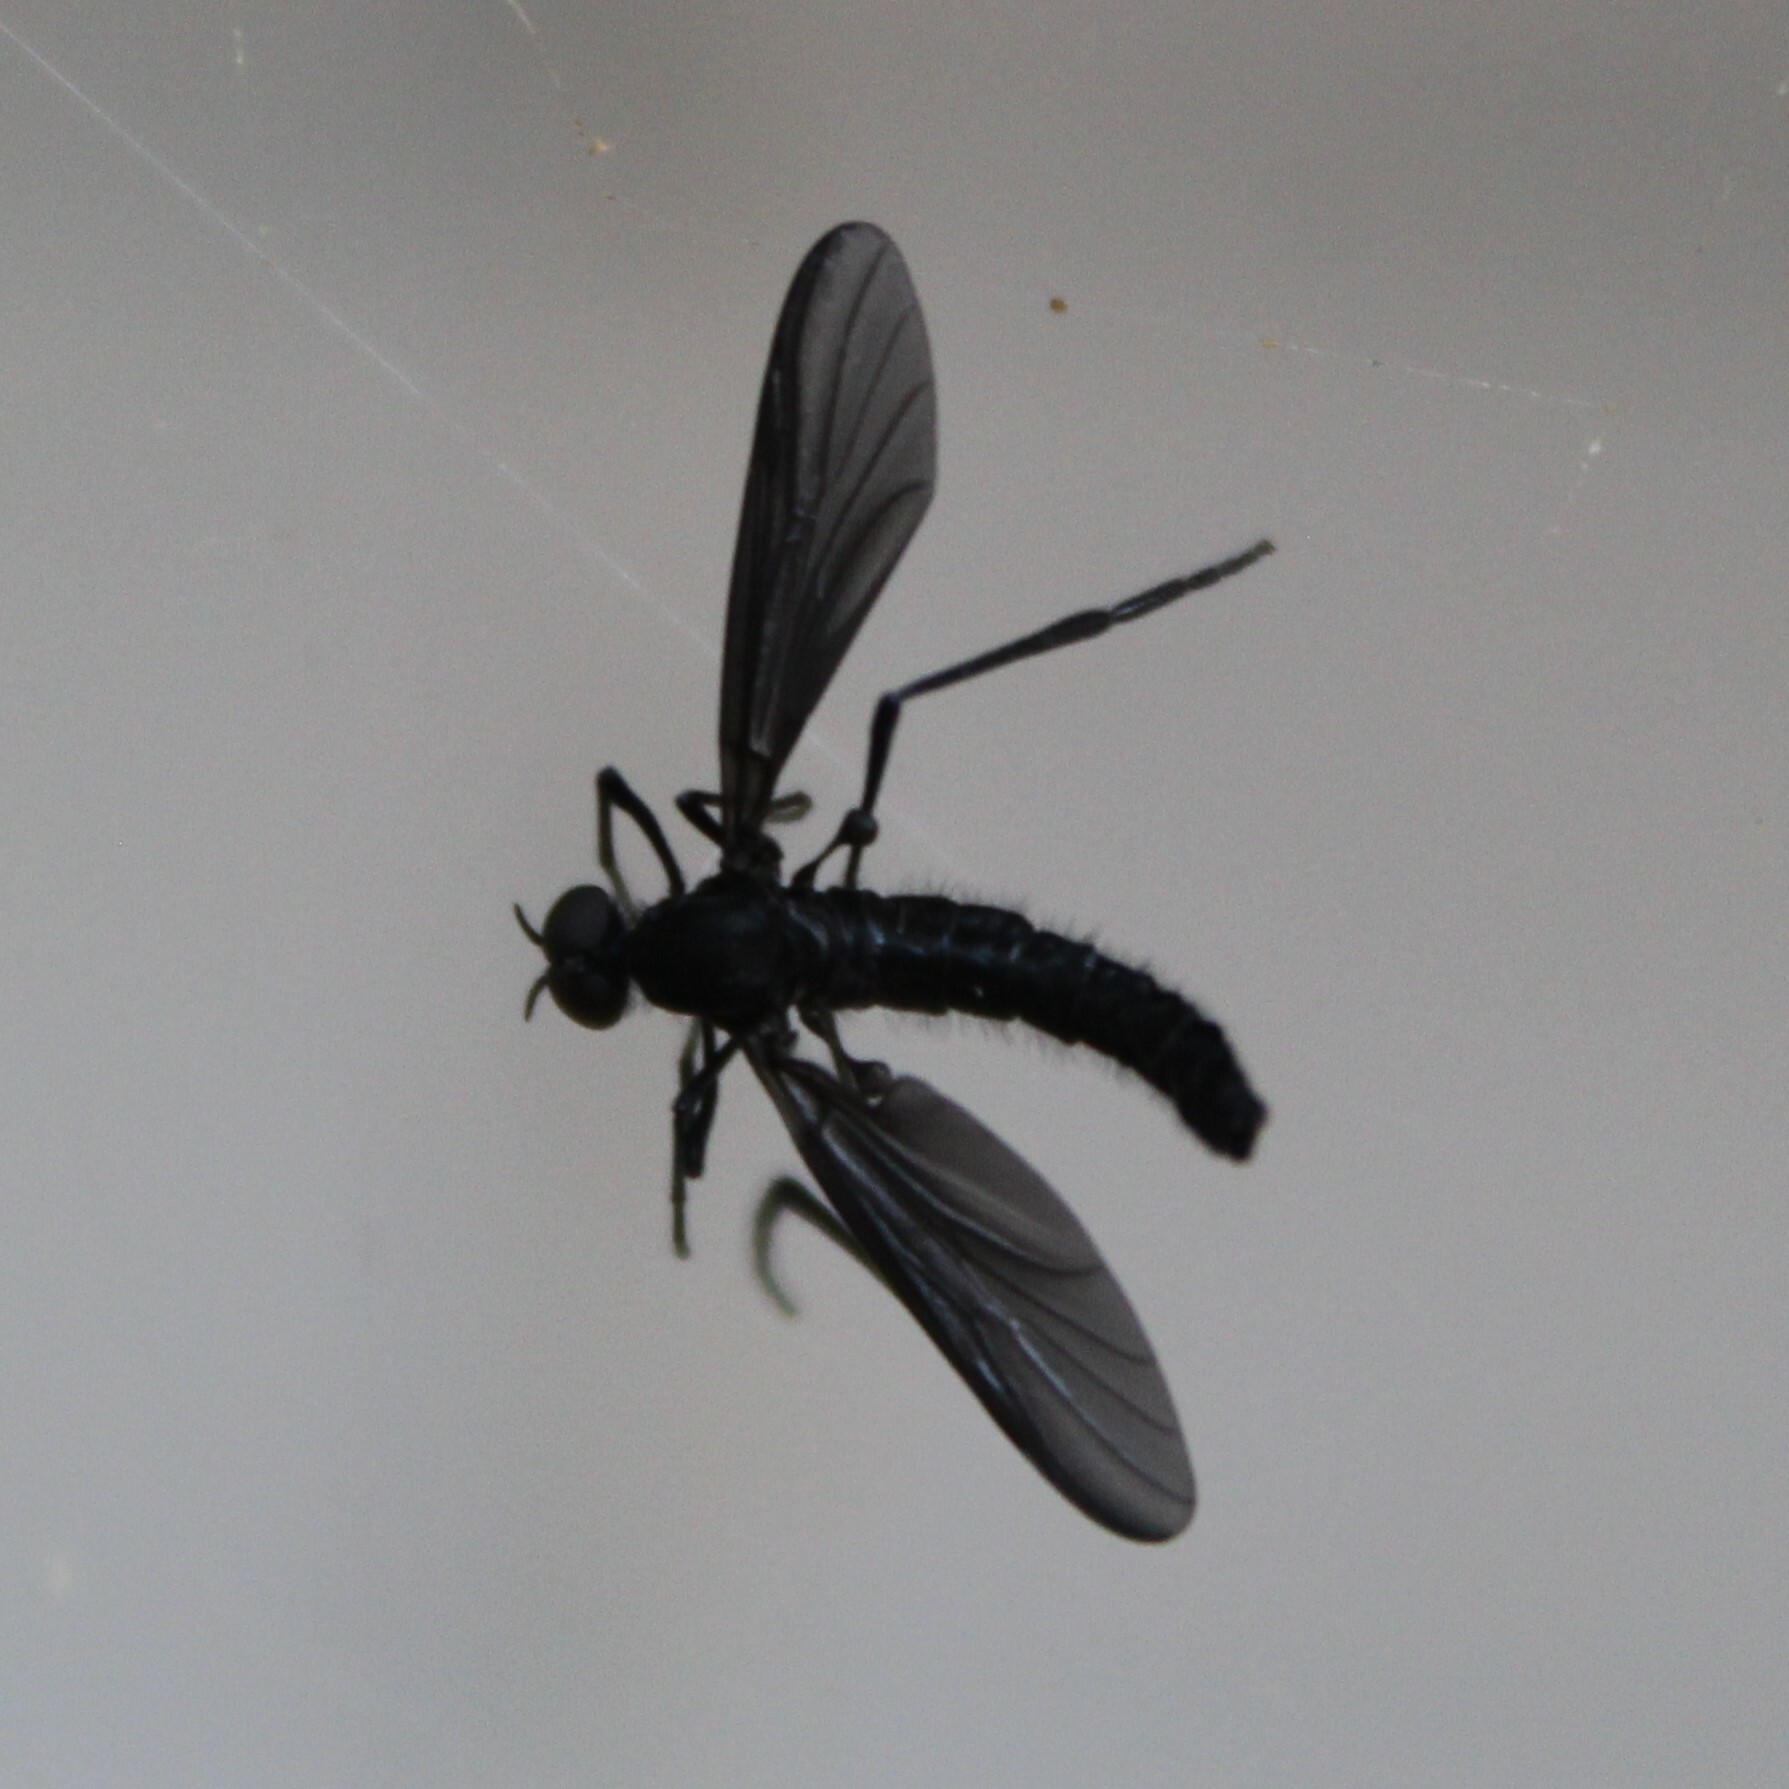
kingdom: Animalia
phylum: Arthropoda
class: Insecta
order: Diptera
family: Bibionidae
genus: Penthetria
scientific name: Penthetria heteroptera
